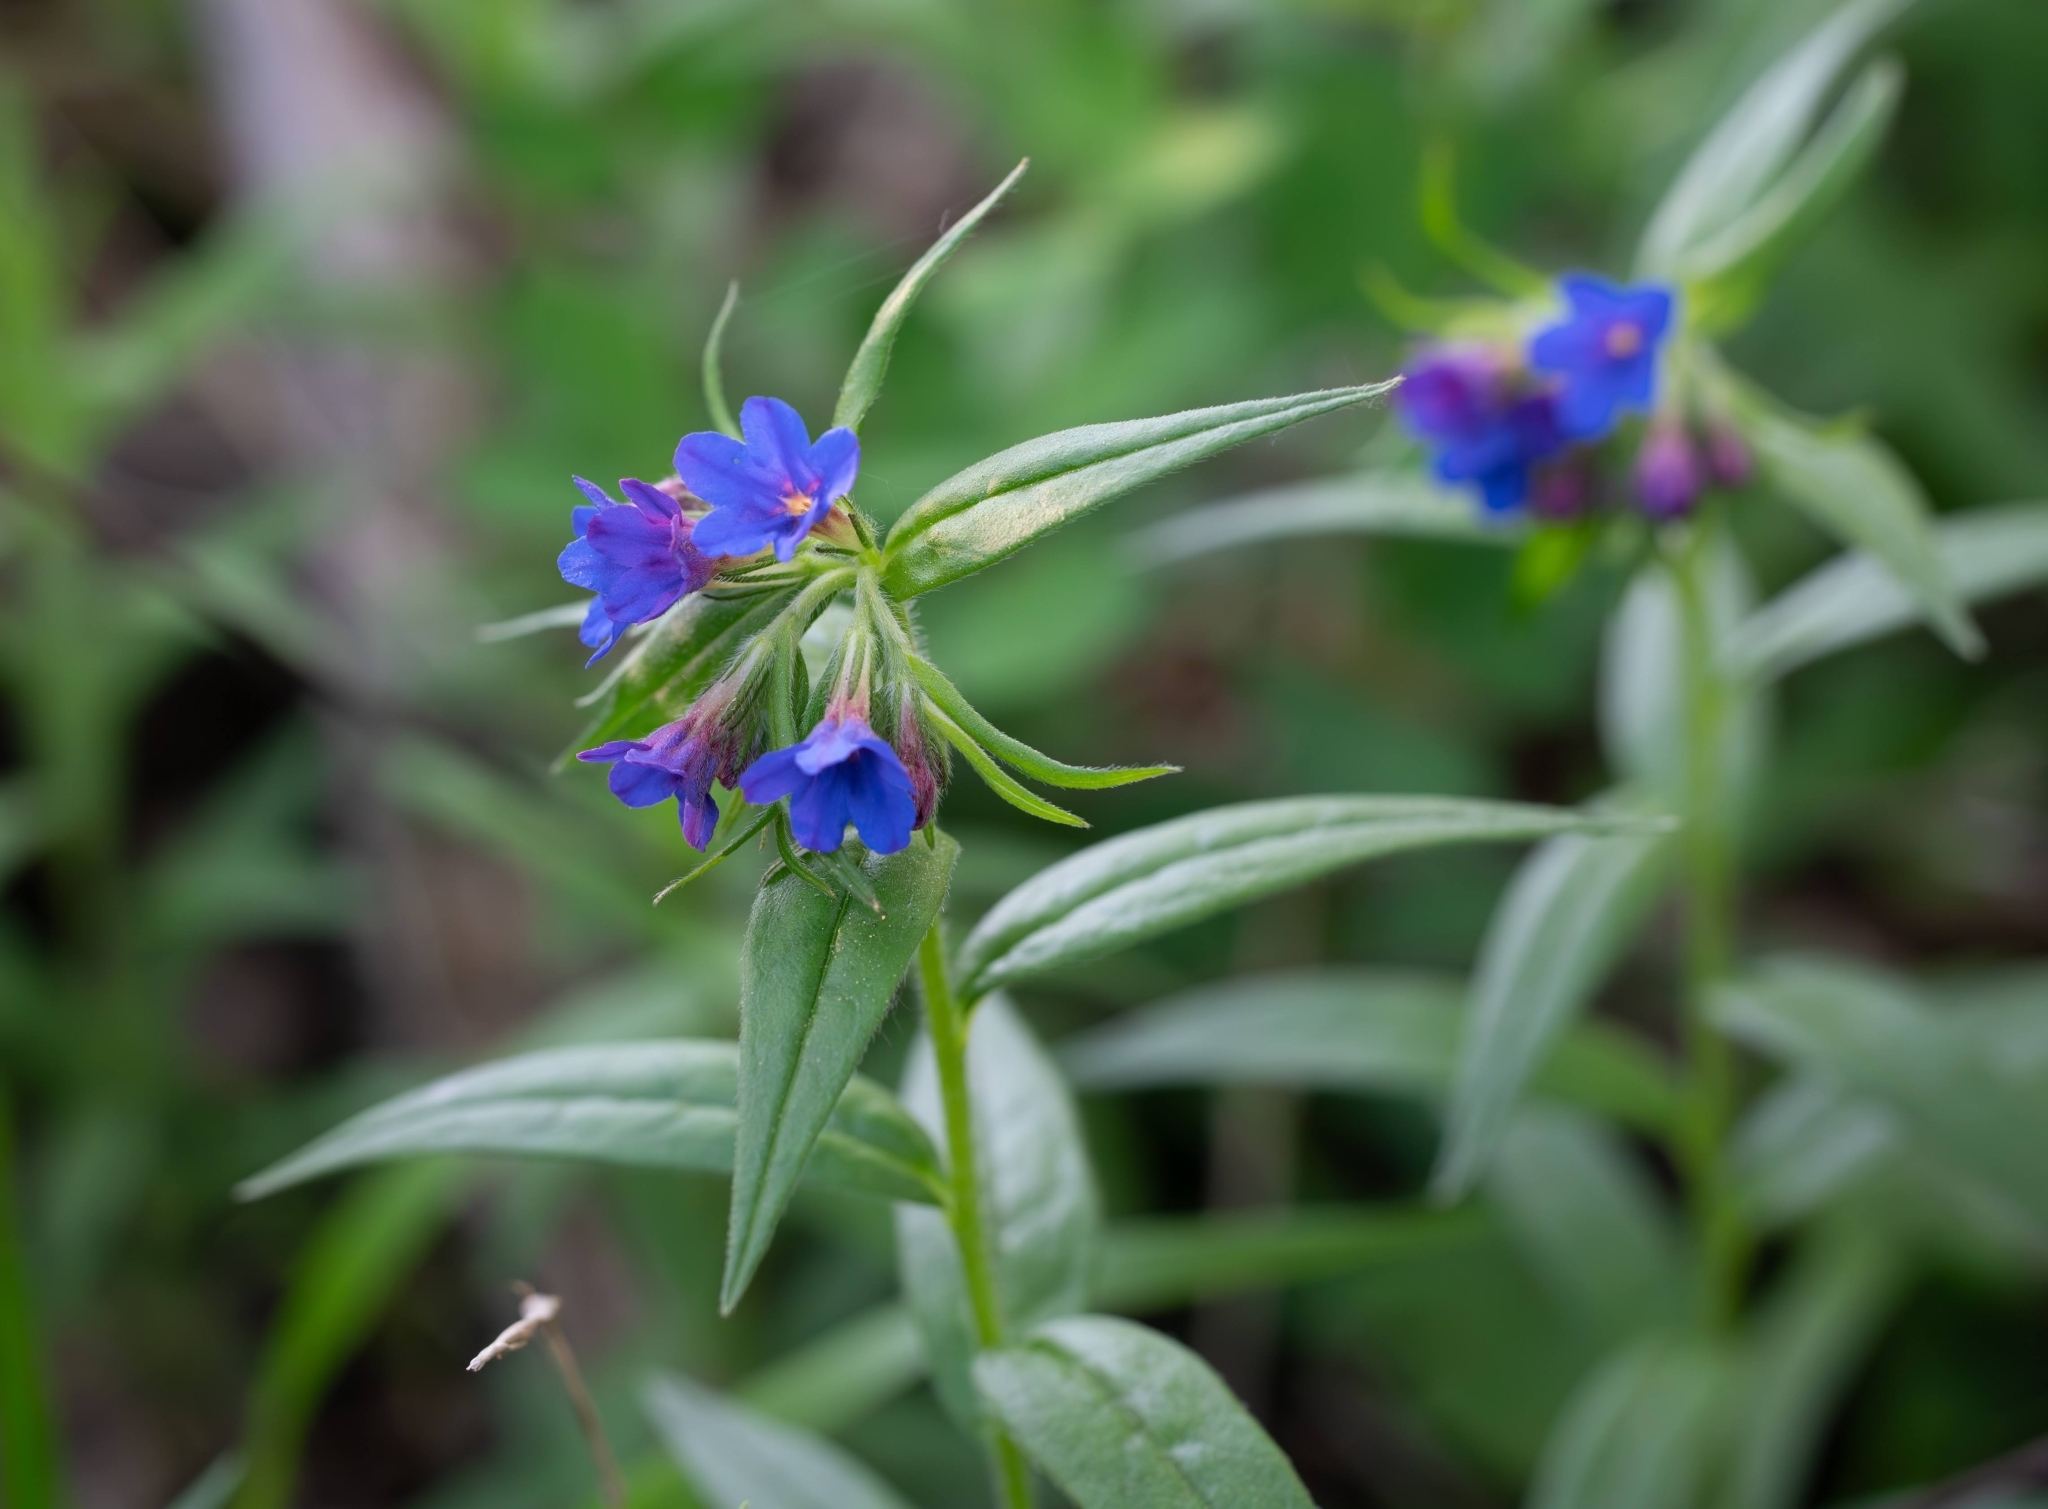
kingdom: Plantae
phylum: Tracheophyta
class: Magnoliopsida
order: Boraginales
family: Boraginaceae
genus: Aegonychon
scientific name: Aegonychon purpurocaeruleum
